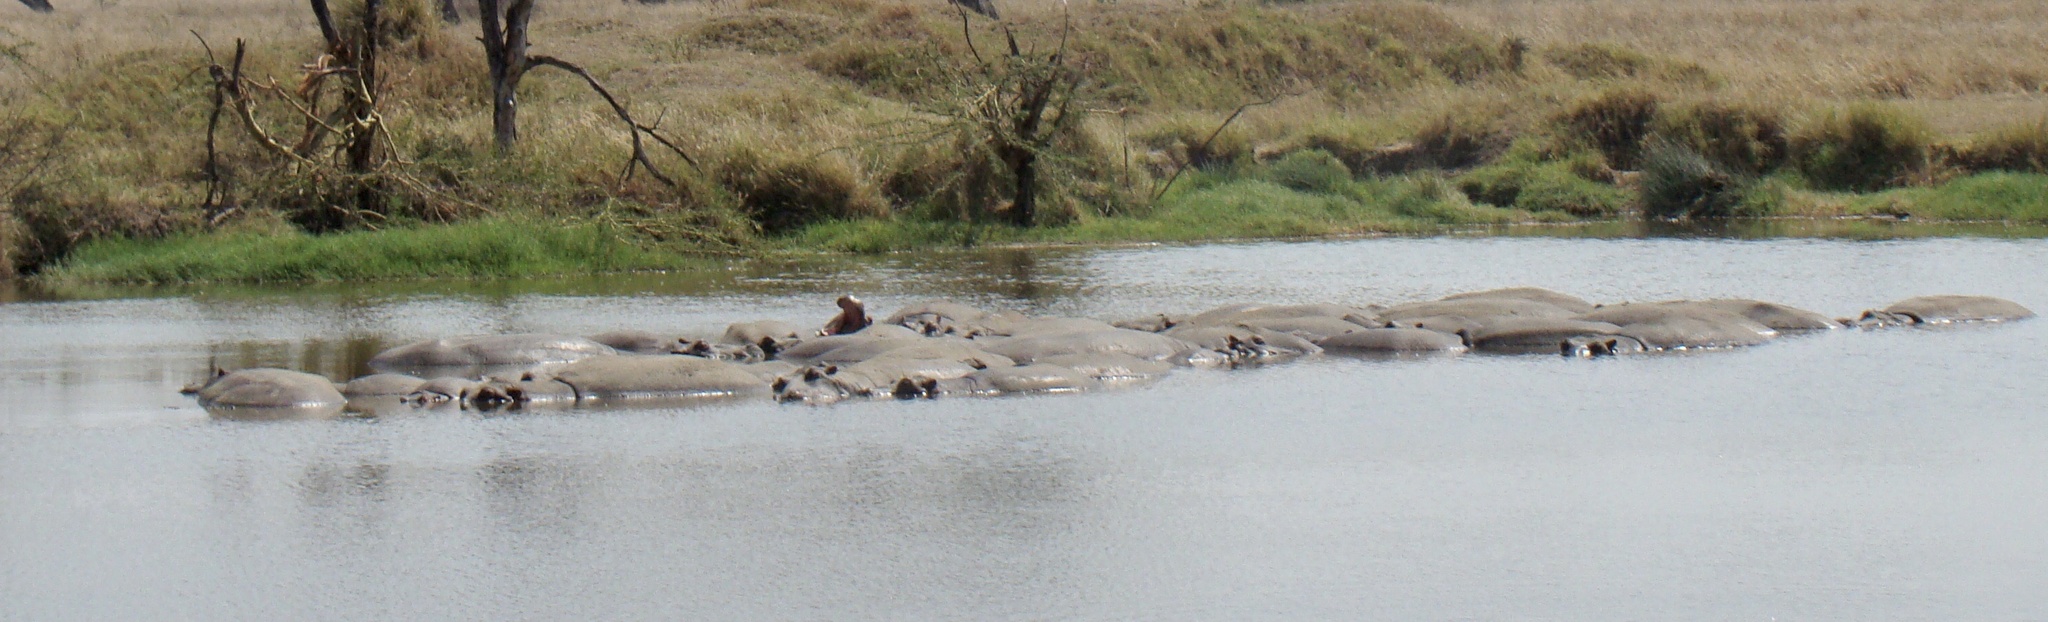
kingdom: Animalia
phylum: Chordata
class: Mammalia
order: Artiodactyla
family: Hippopotamidae
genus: Hippopotamus
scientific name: Hippopotamus amphibius
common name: Common hippopotamus
